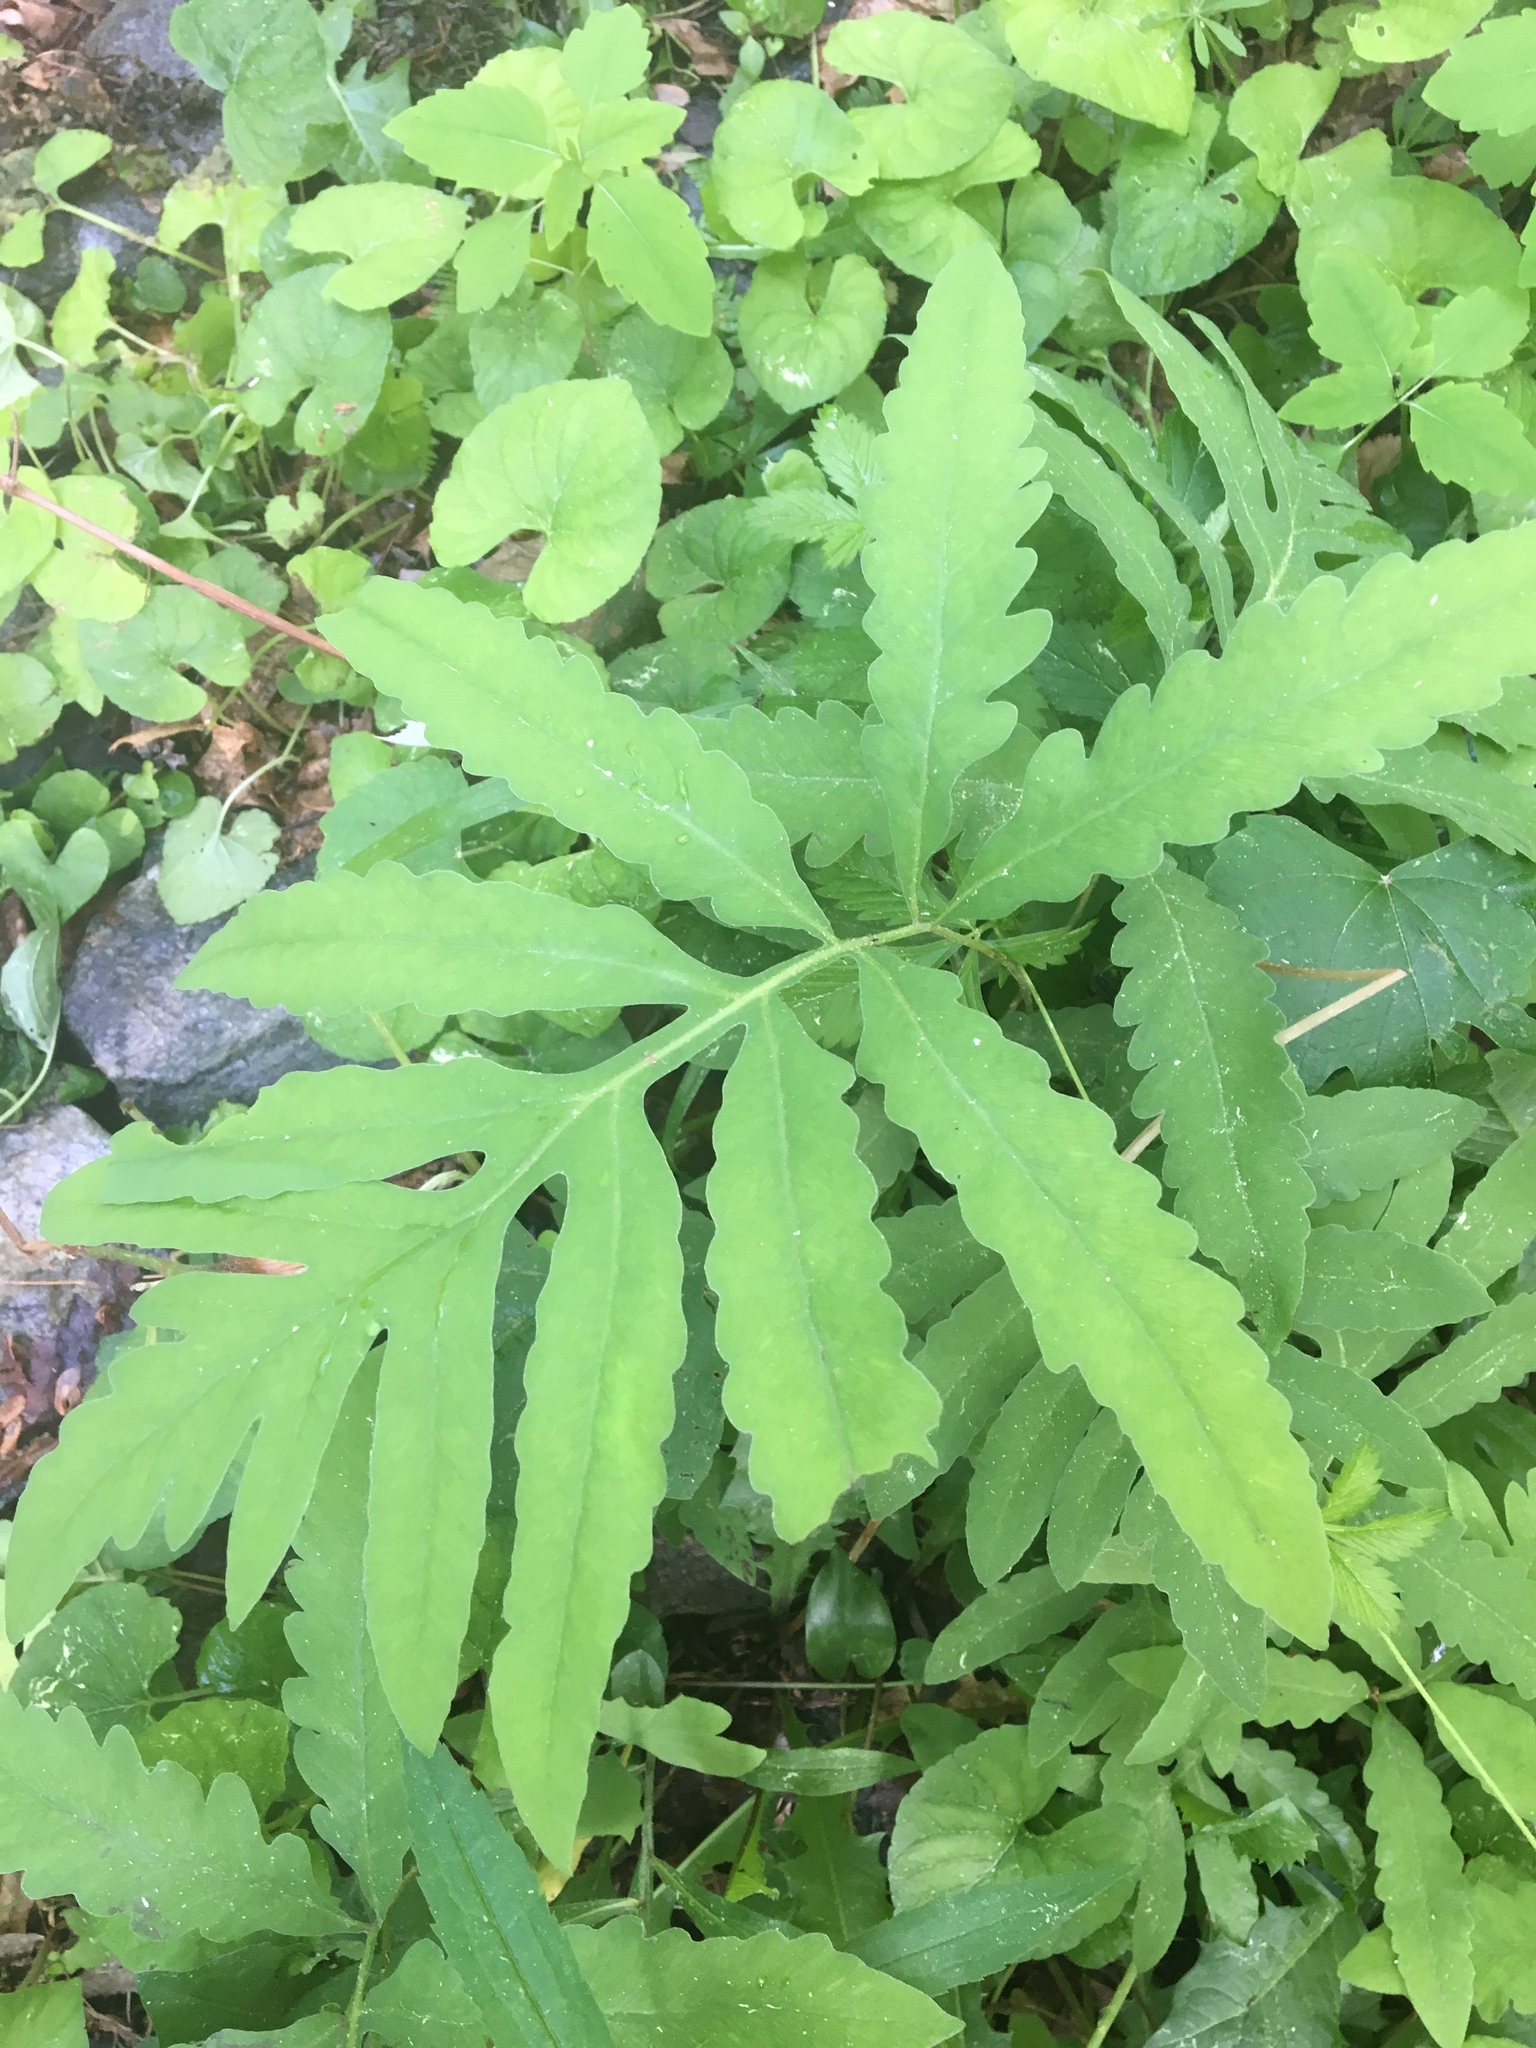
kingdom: Plantae
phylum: Tracheophyta
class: Polypodiopsida
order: Polypodiales
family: Onocleaceae
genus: Onoclea
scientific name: Onoclea sensibilis
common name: Sensitive fern
